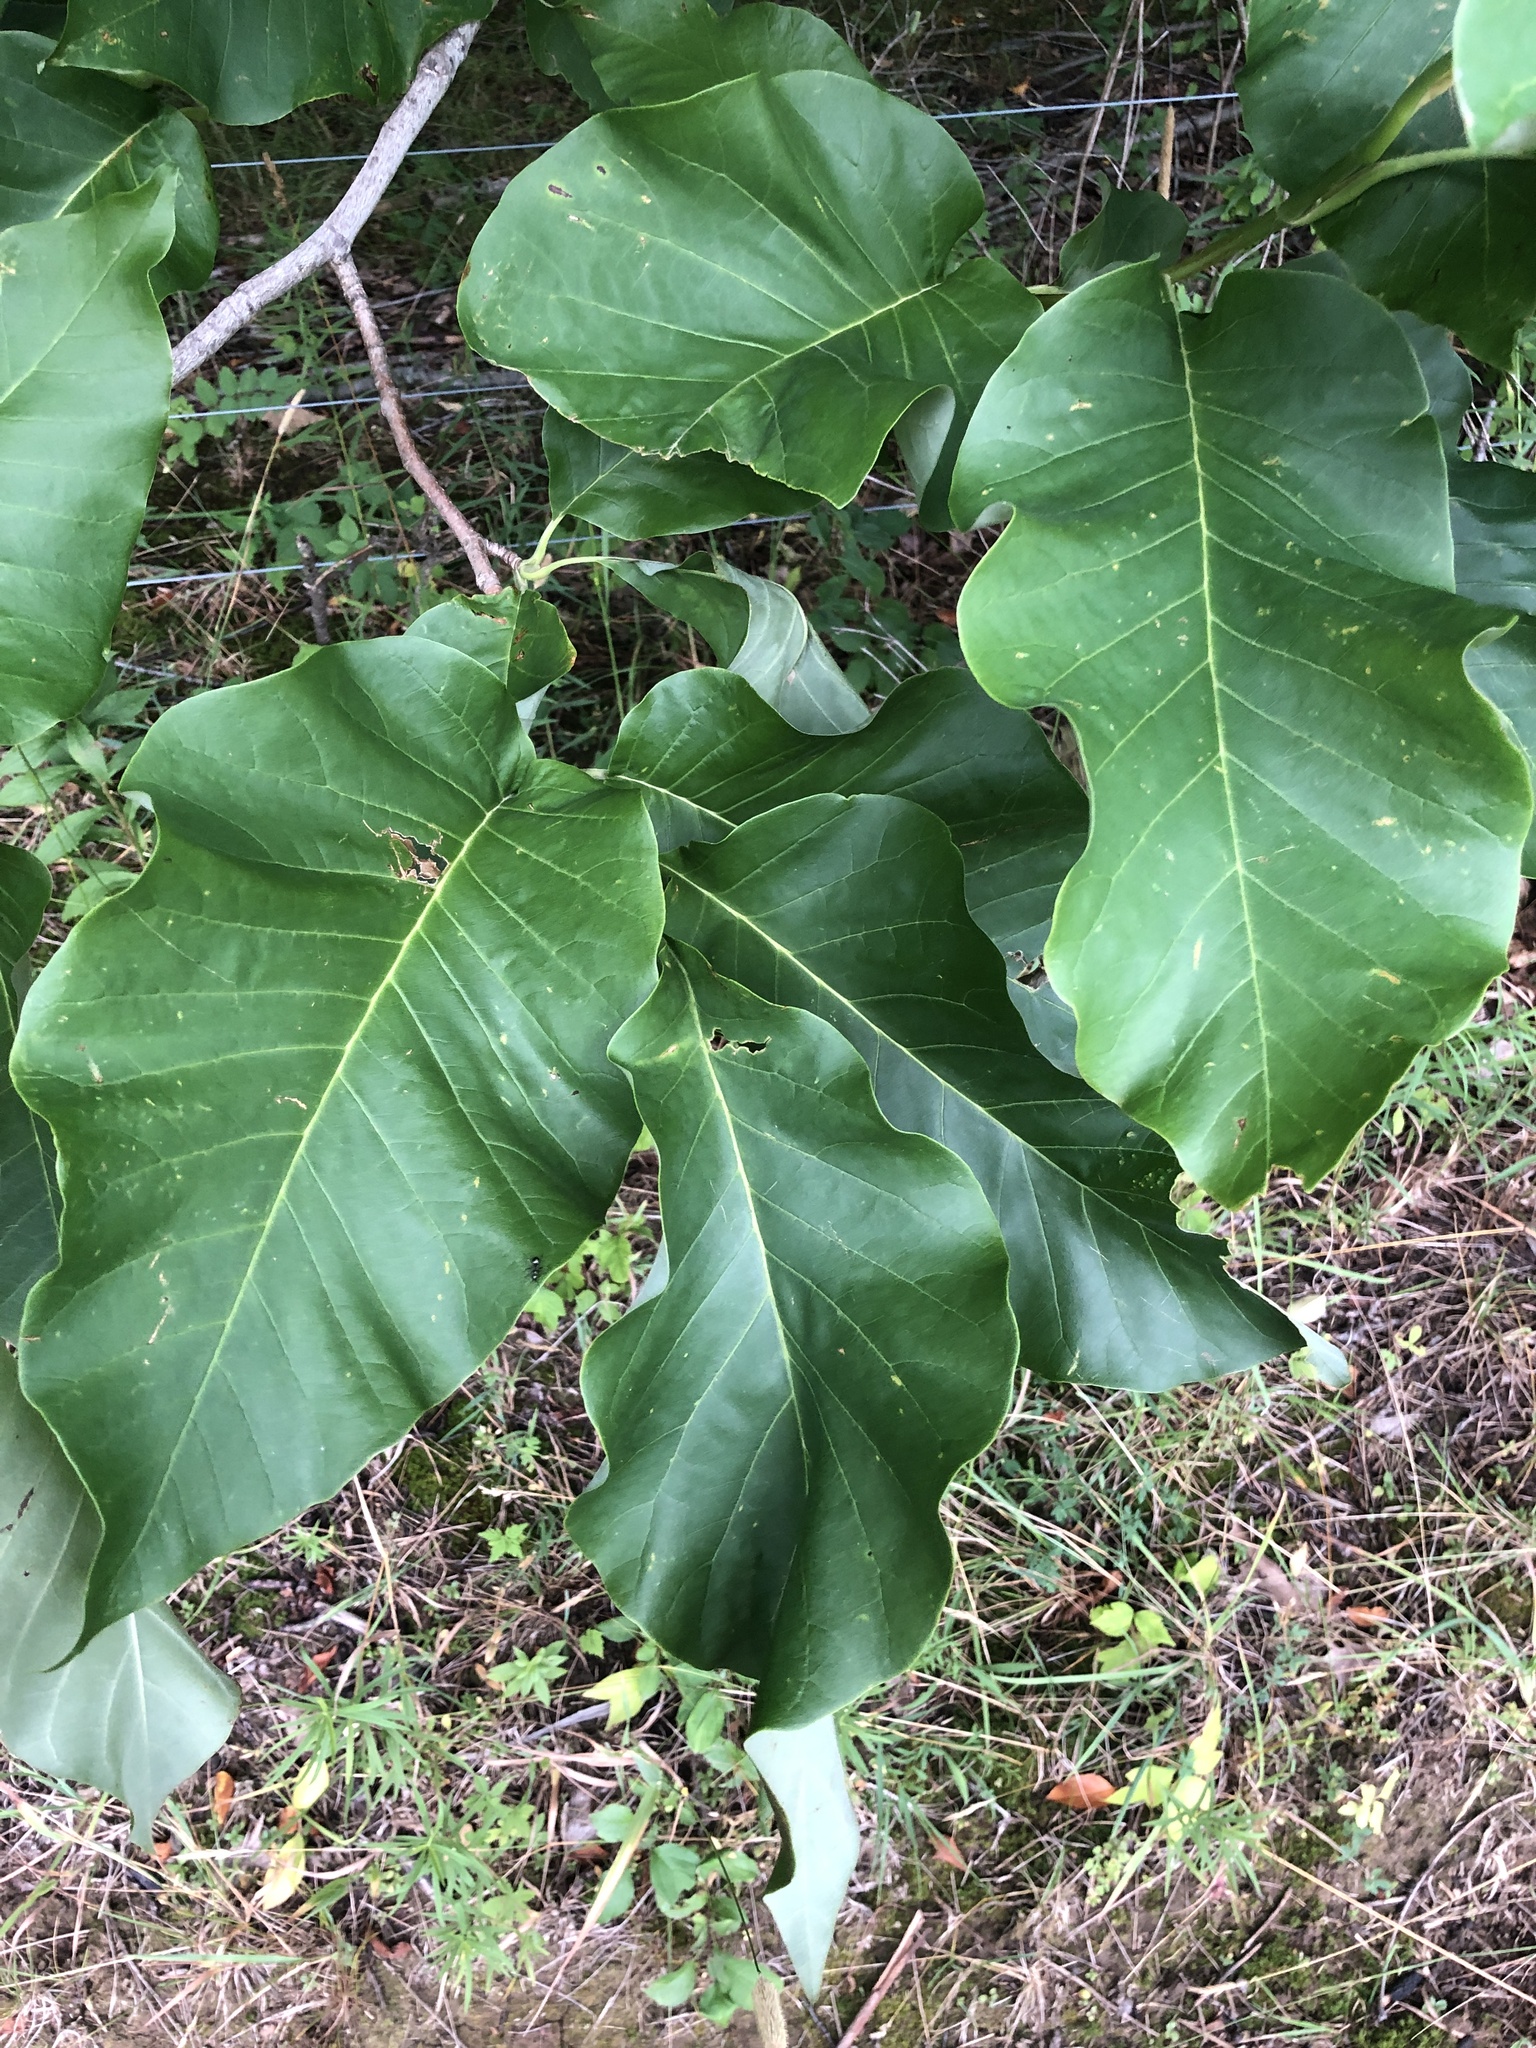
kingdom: Plantae
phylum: Tracheophyta
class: Magnoliopsida
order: Magnoliales
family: Magnoliaceae
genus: Magnolia
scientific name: Magnolia acuminata
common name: Cucumber magnolia
